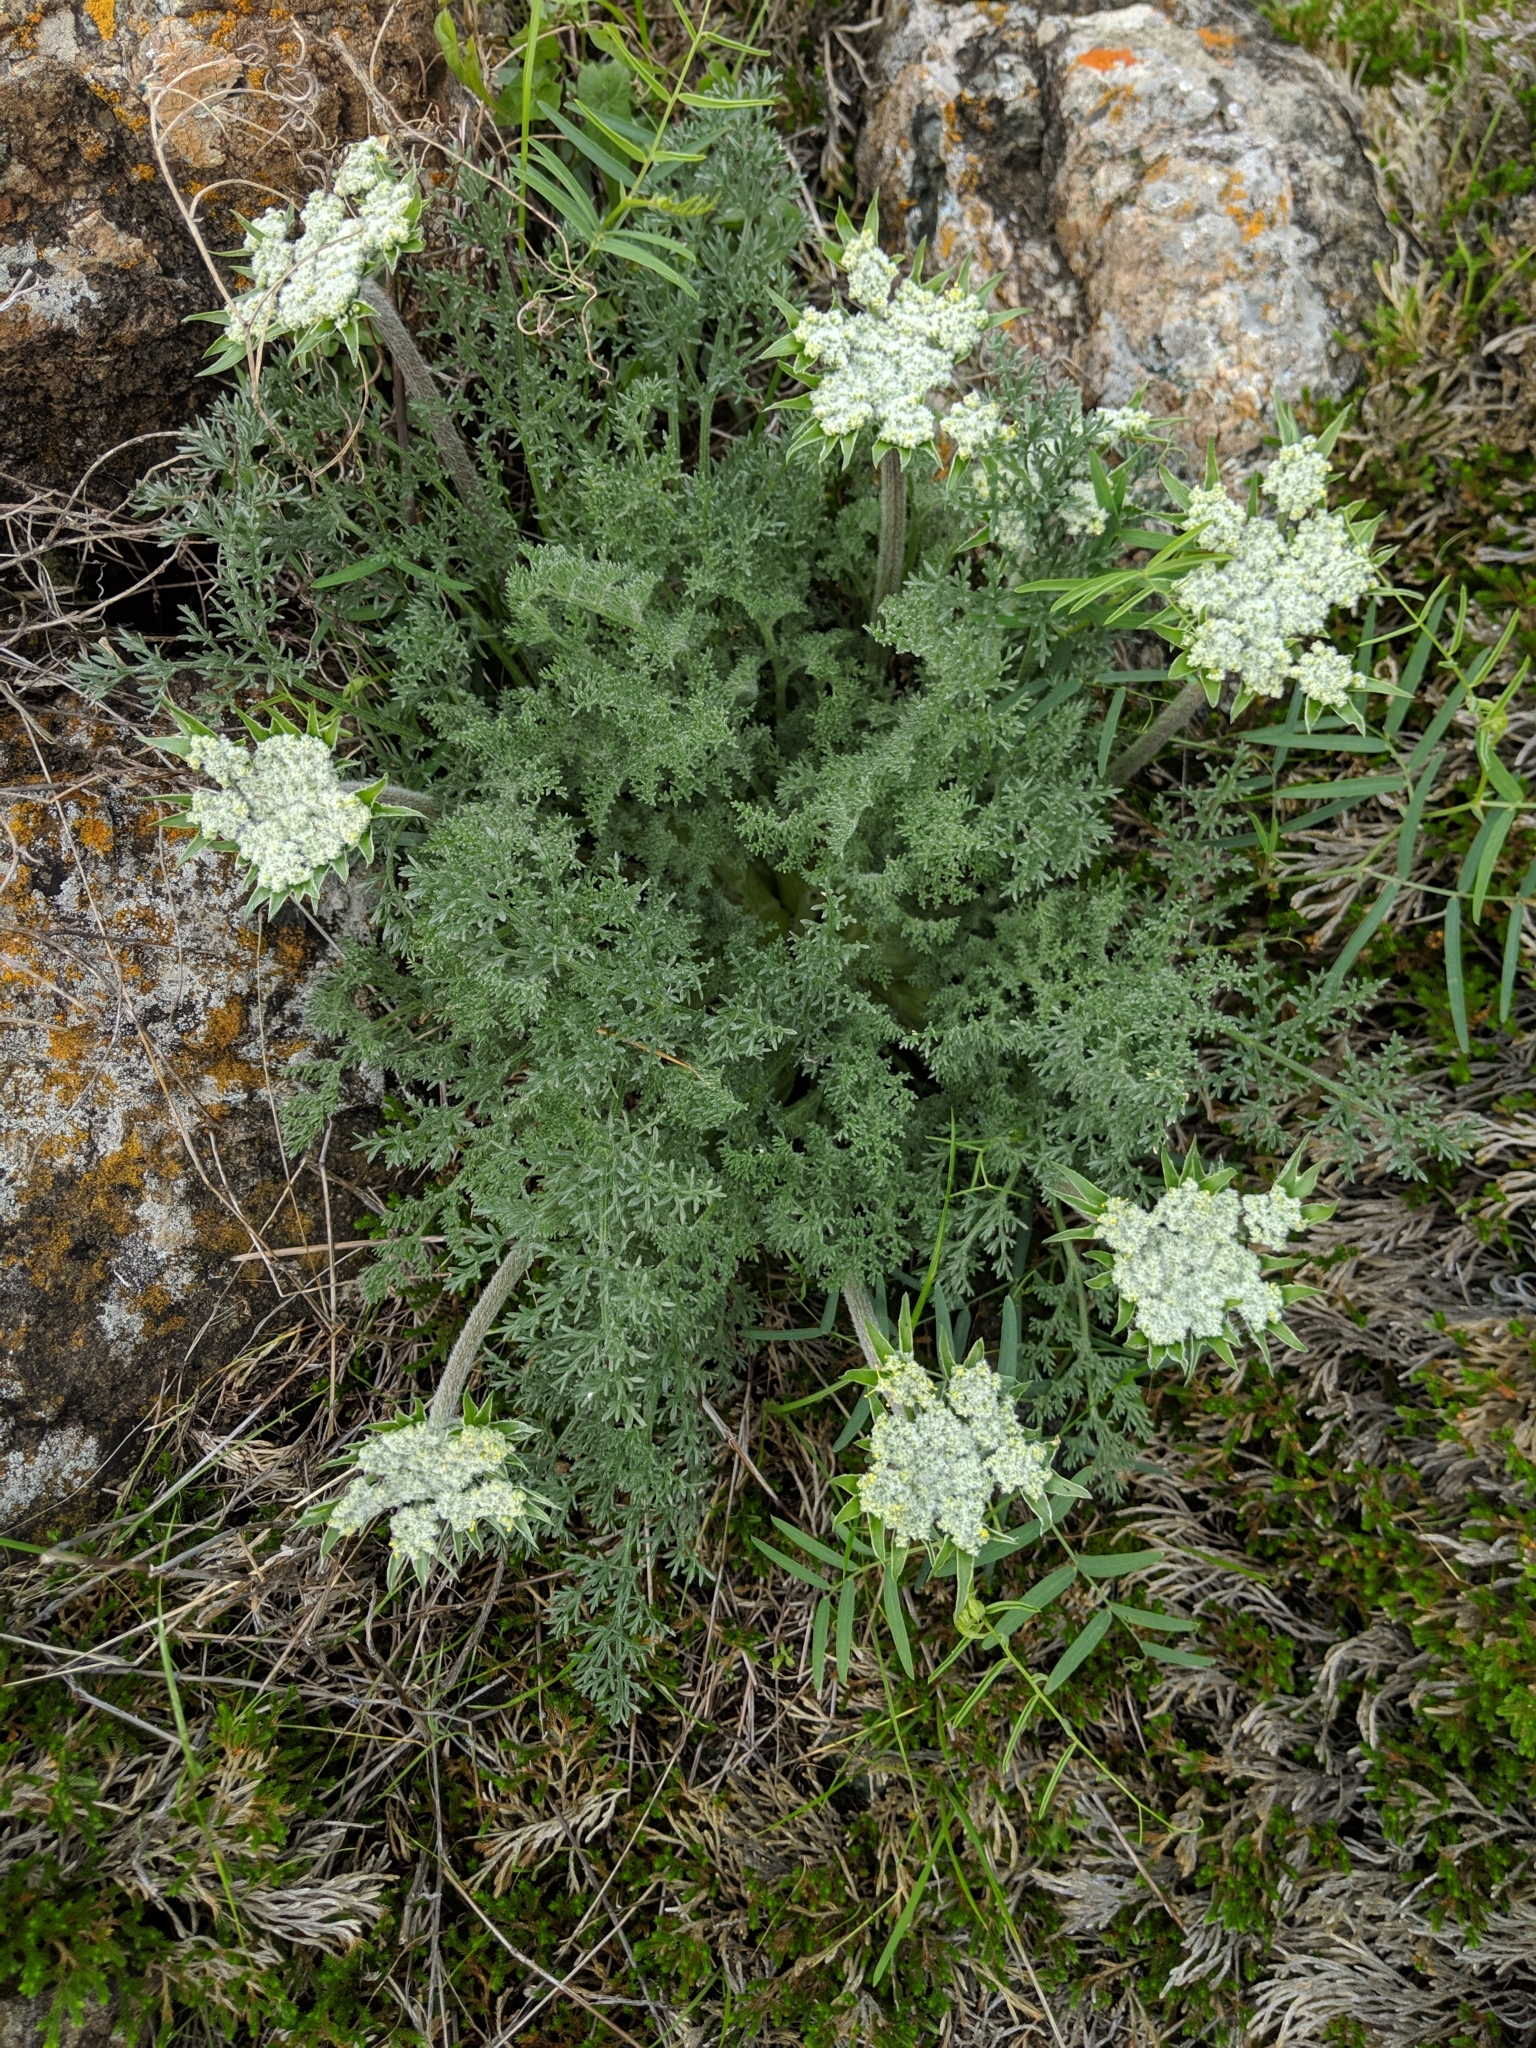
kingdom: Plantae
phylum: Tracheophyta
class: Magnoliopsida
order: Apiales
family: Apiaceae
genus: Lomatium
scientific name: Lomatium dasycarpum
